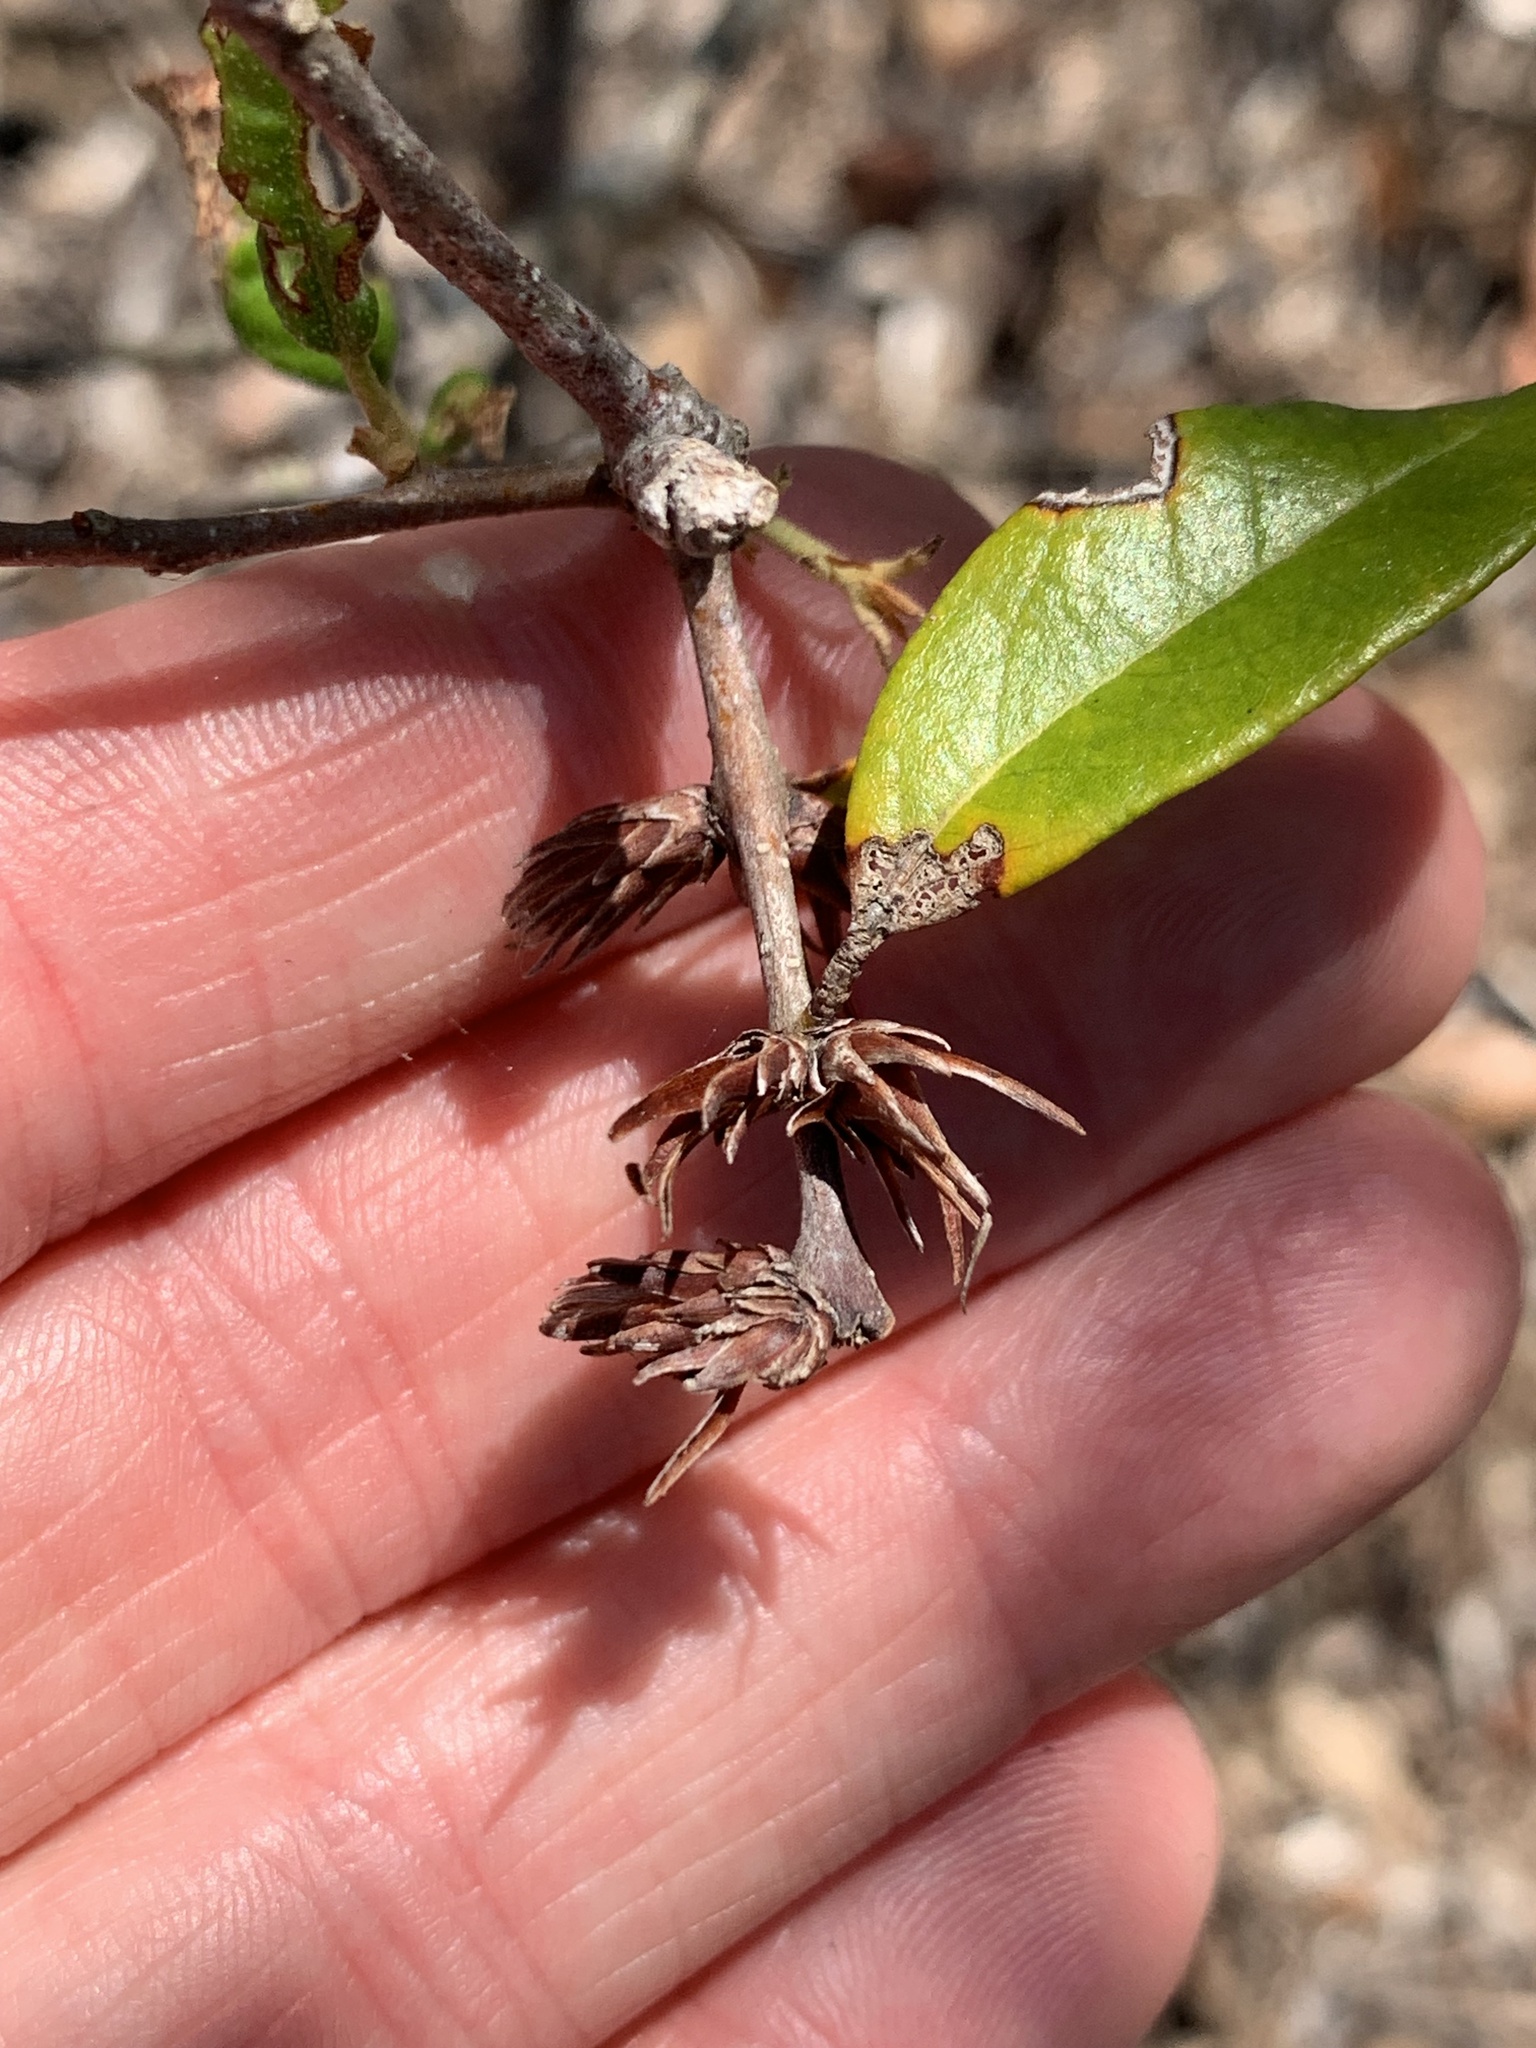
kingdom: Animalia
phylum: Arthropoda
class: Insecta
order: Diptera
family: Cecidomyiidae
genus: Arnoldiola
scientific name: Arnoldiola atra
